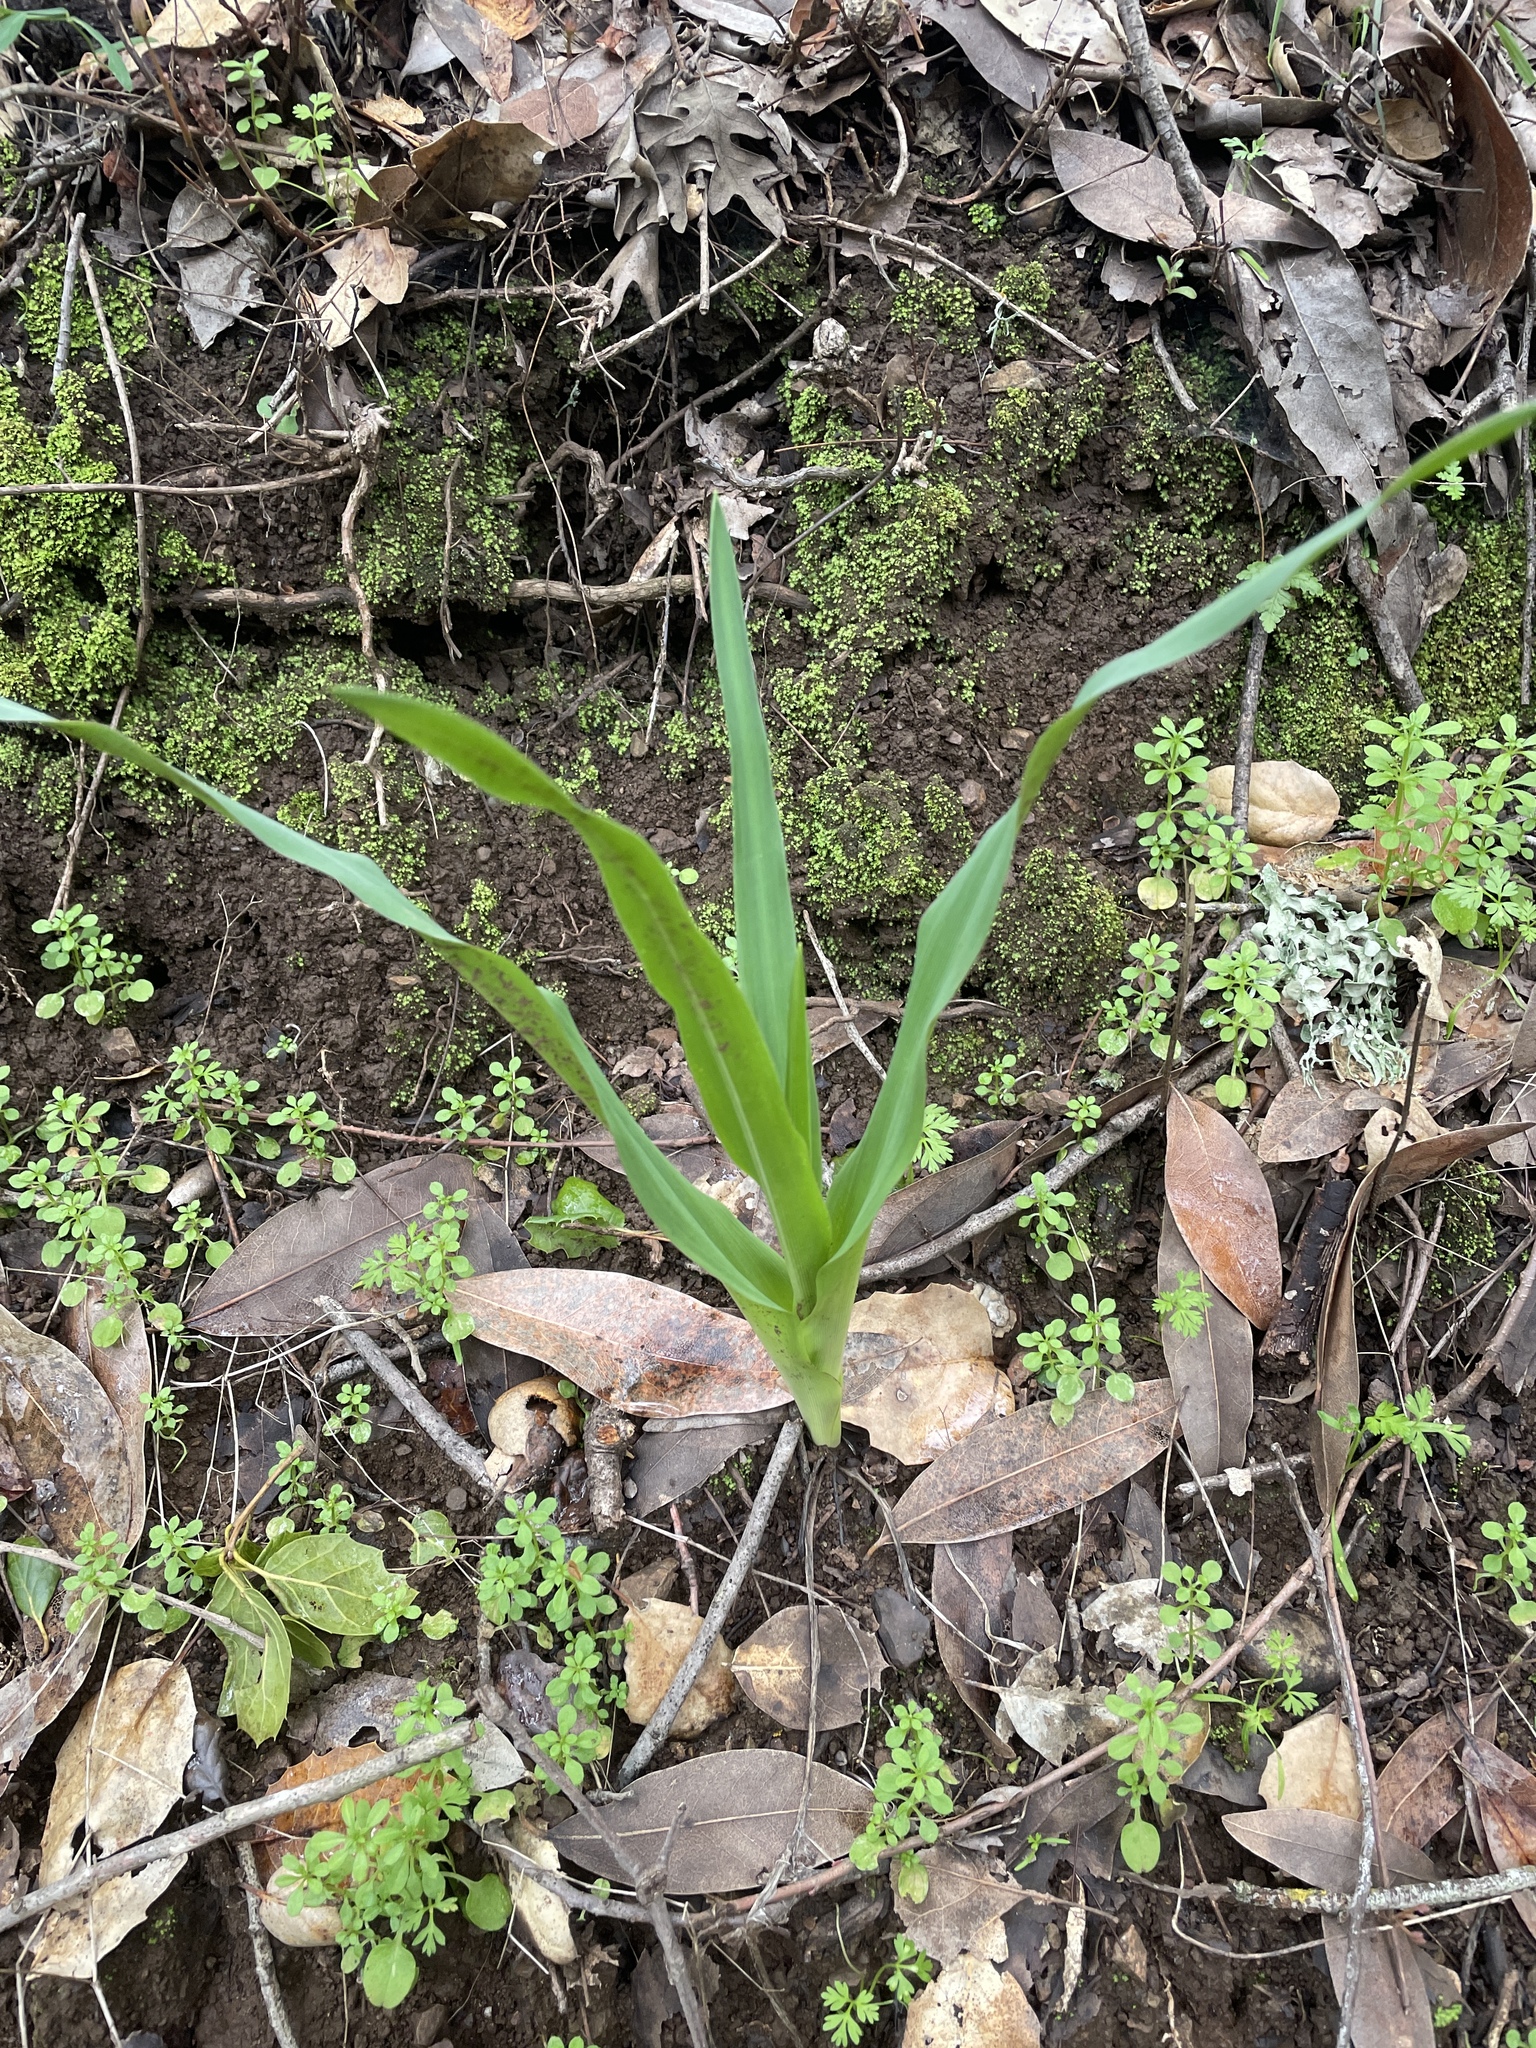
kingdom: Plantae
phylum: Tracheophyta
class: Liliopsida
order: Asparagales
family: Asparagaceae
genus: Chlorogalum
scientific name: Chlorogalum pomeridianum
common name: Amole
